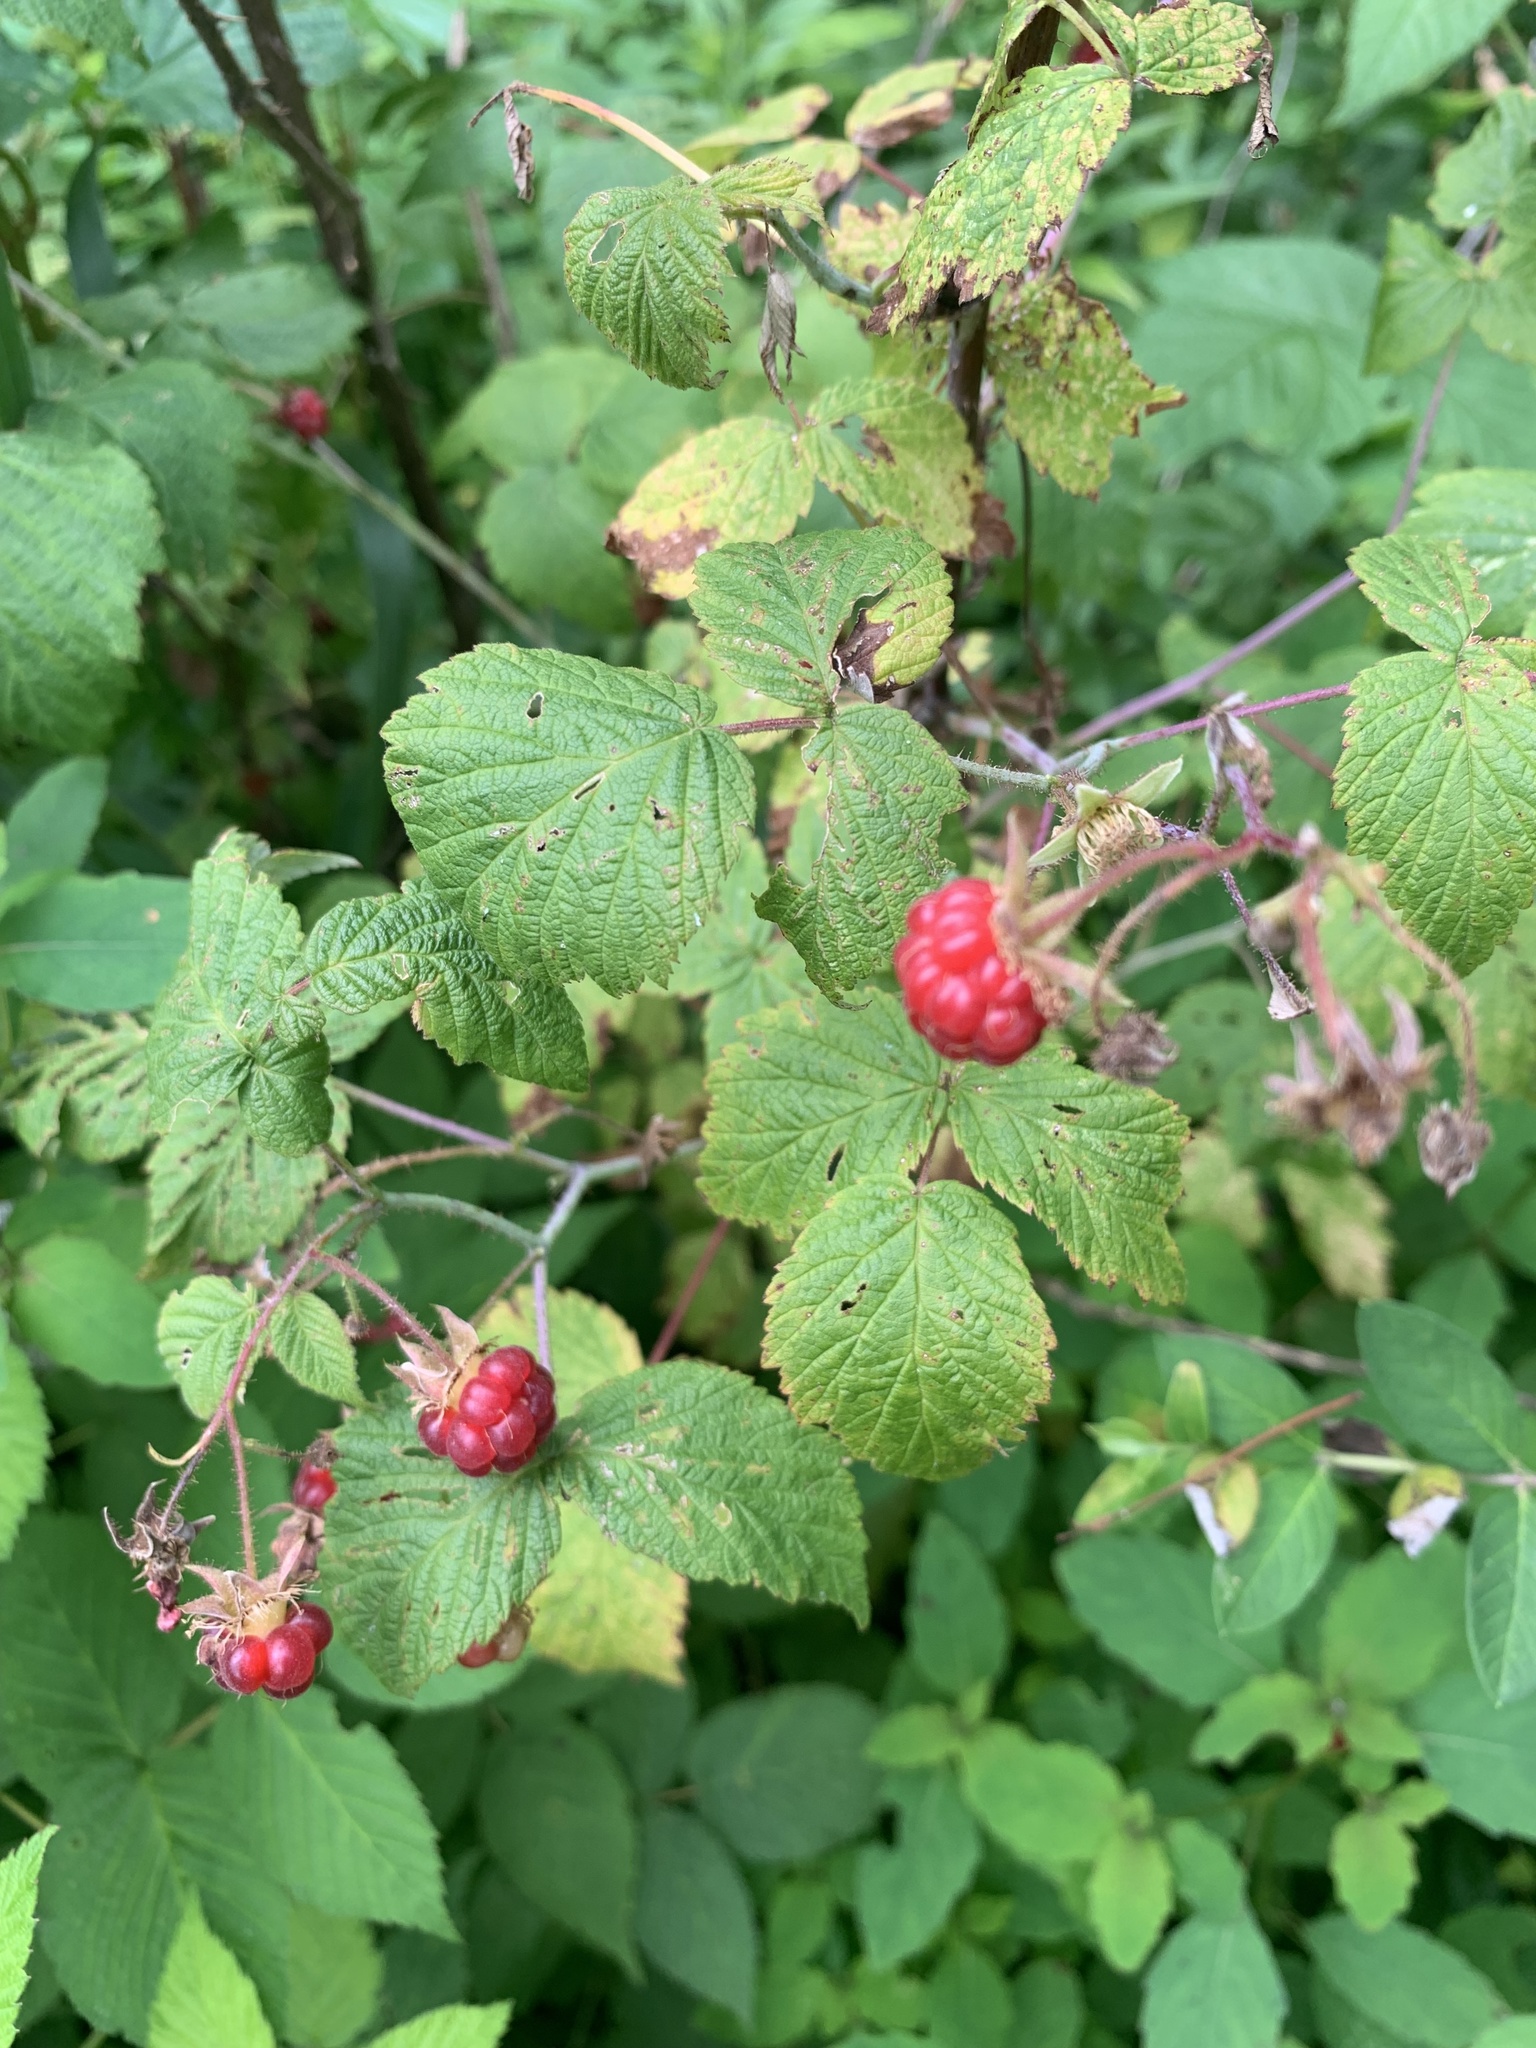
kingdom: Plantae
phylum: Tracheophyta
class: Magnoliopsida
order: Rosales
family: Rosaceae
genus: Rubus
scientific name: Rubus idaeus
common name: Raspberry
